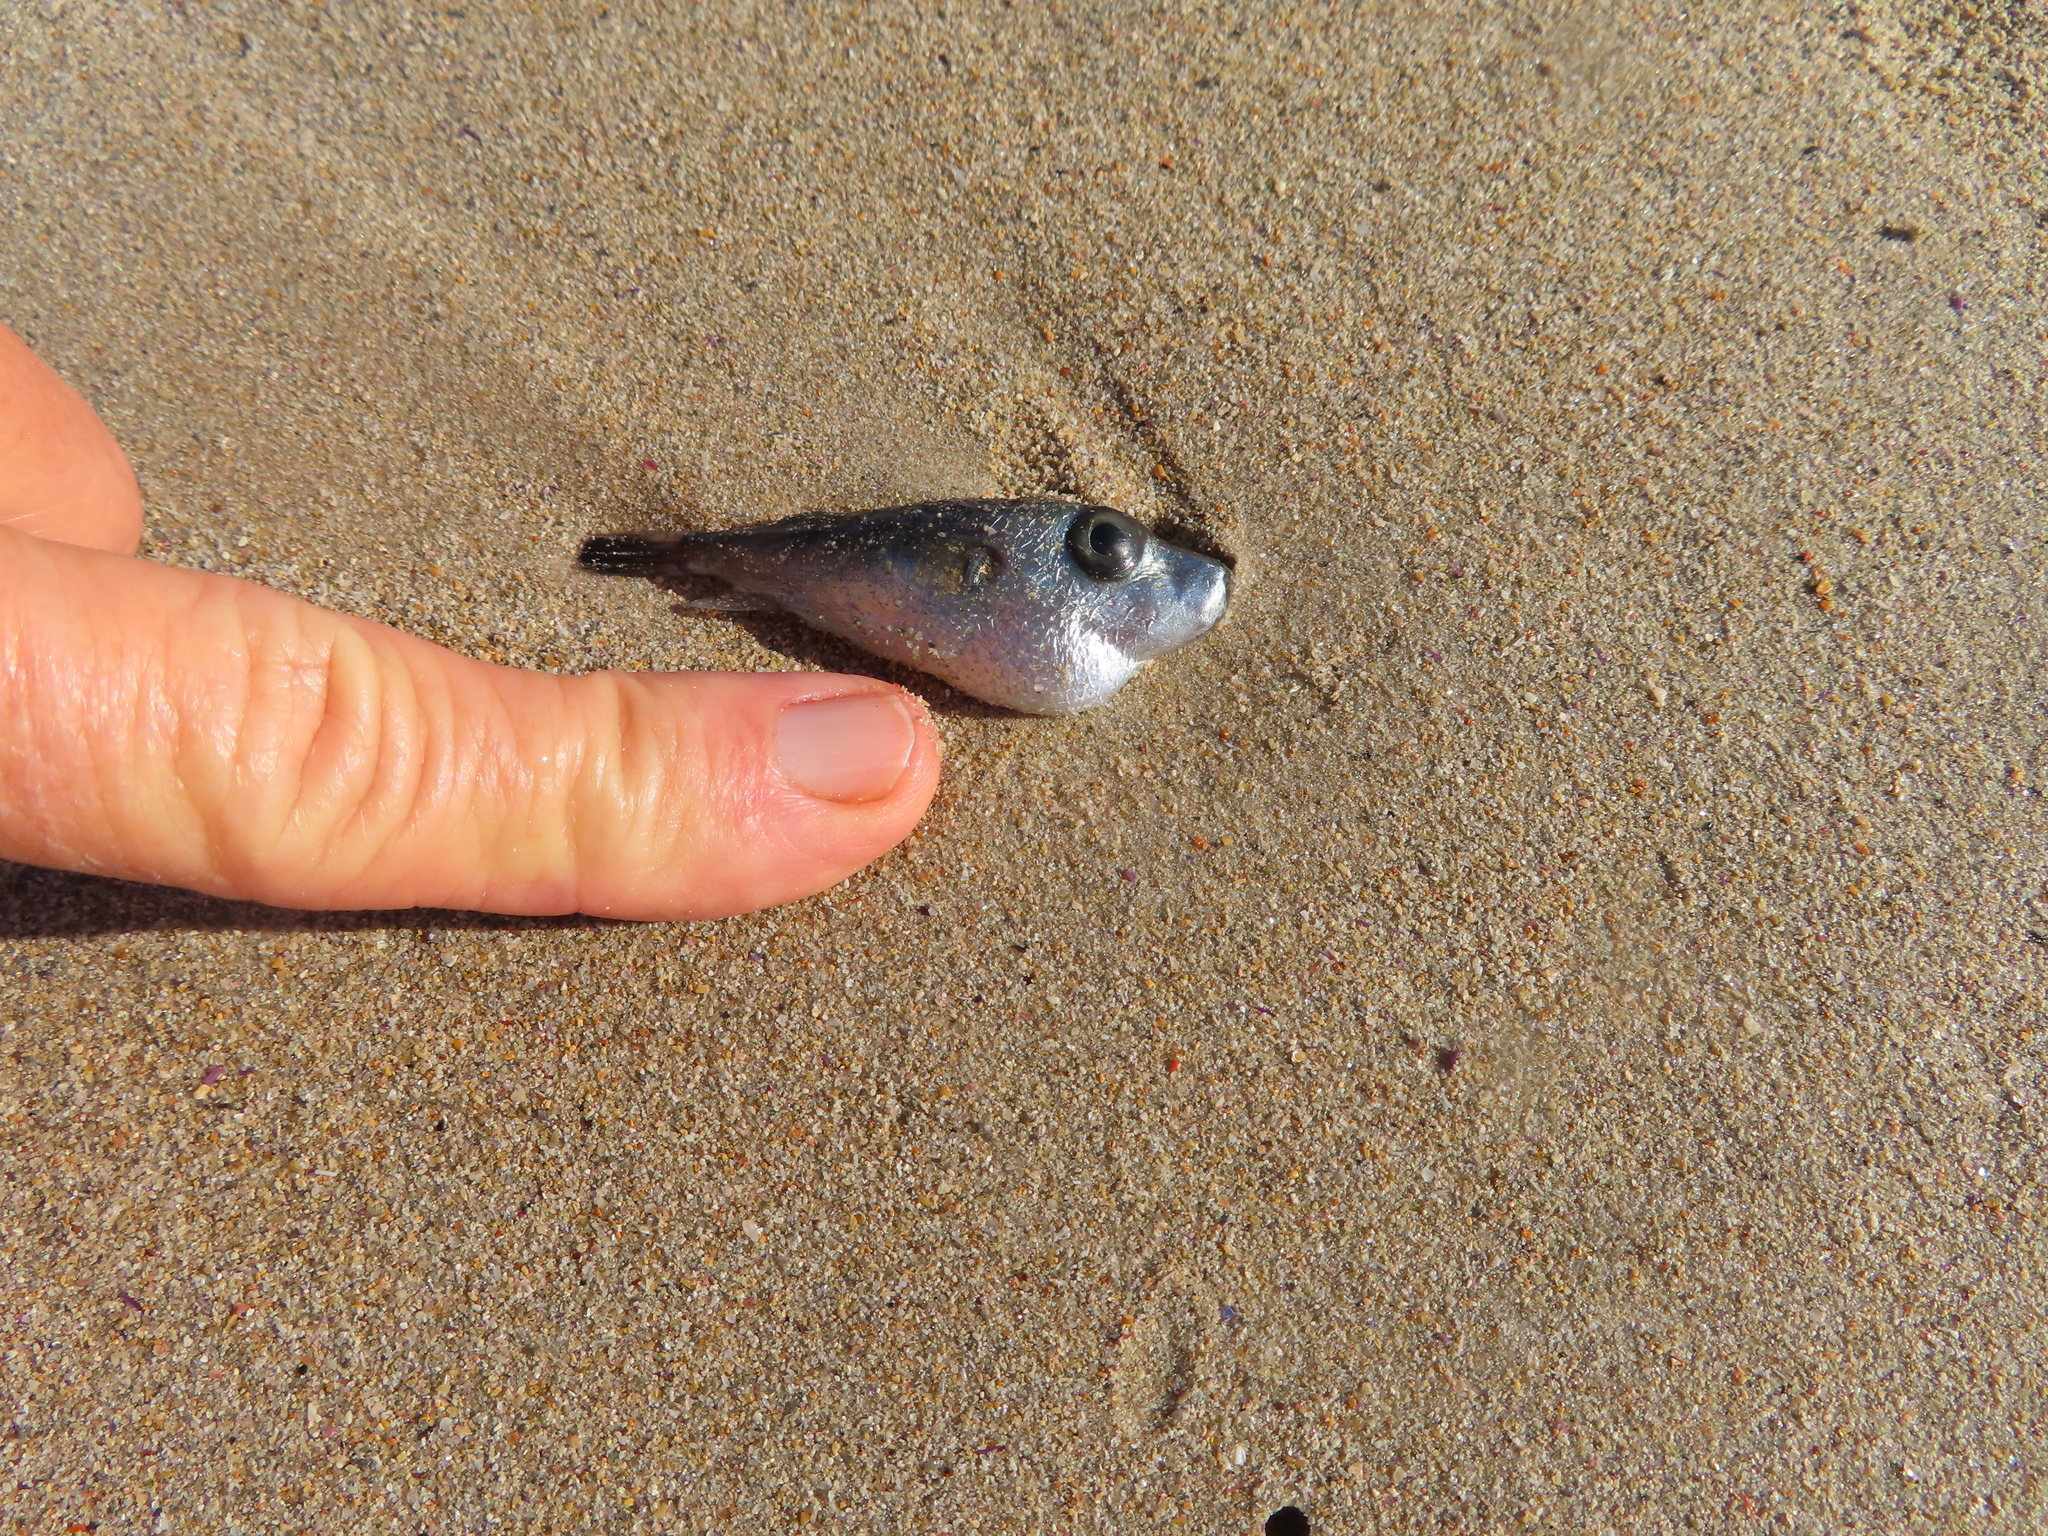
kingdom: Animalia
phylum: Chordata
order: Tetraodontiformes
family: Tetraodontidae
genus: Pelagocephalus
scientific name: Pelagocephalus marki
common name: Rippled blaasop
